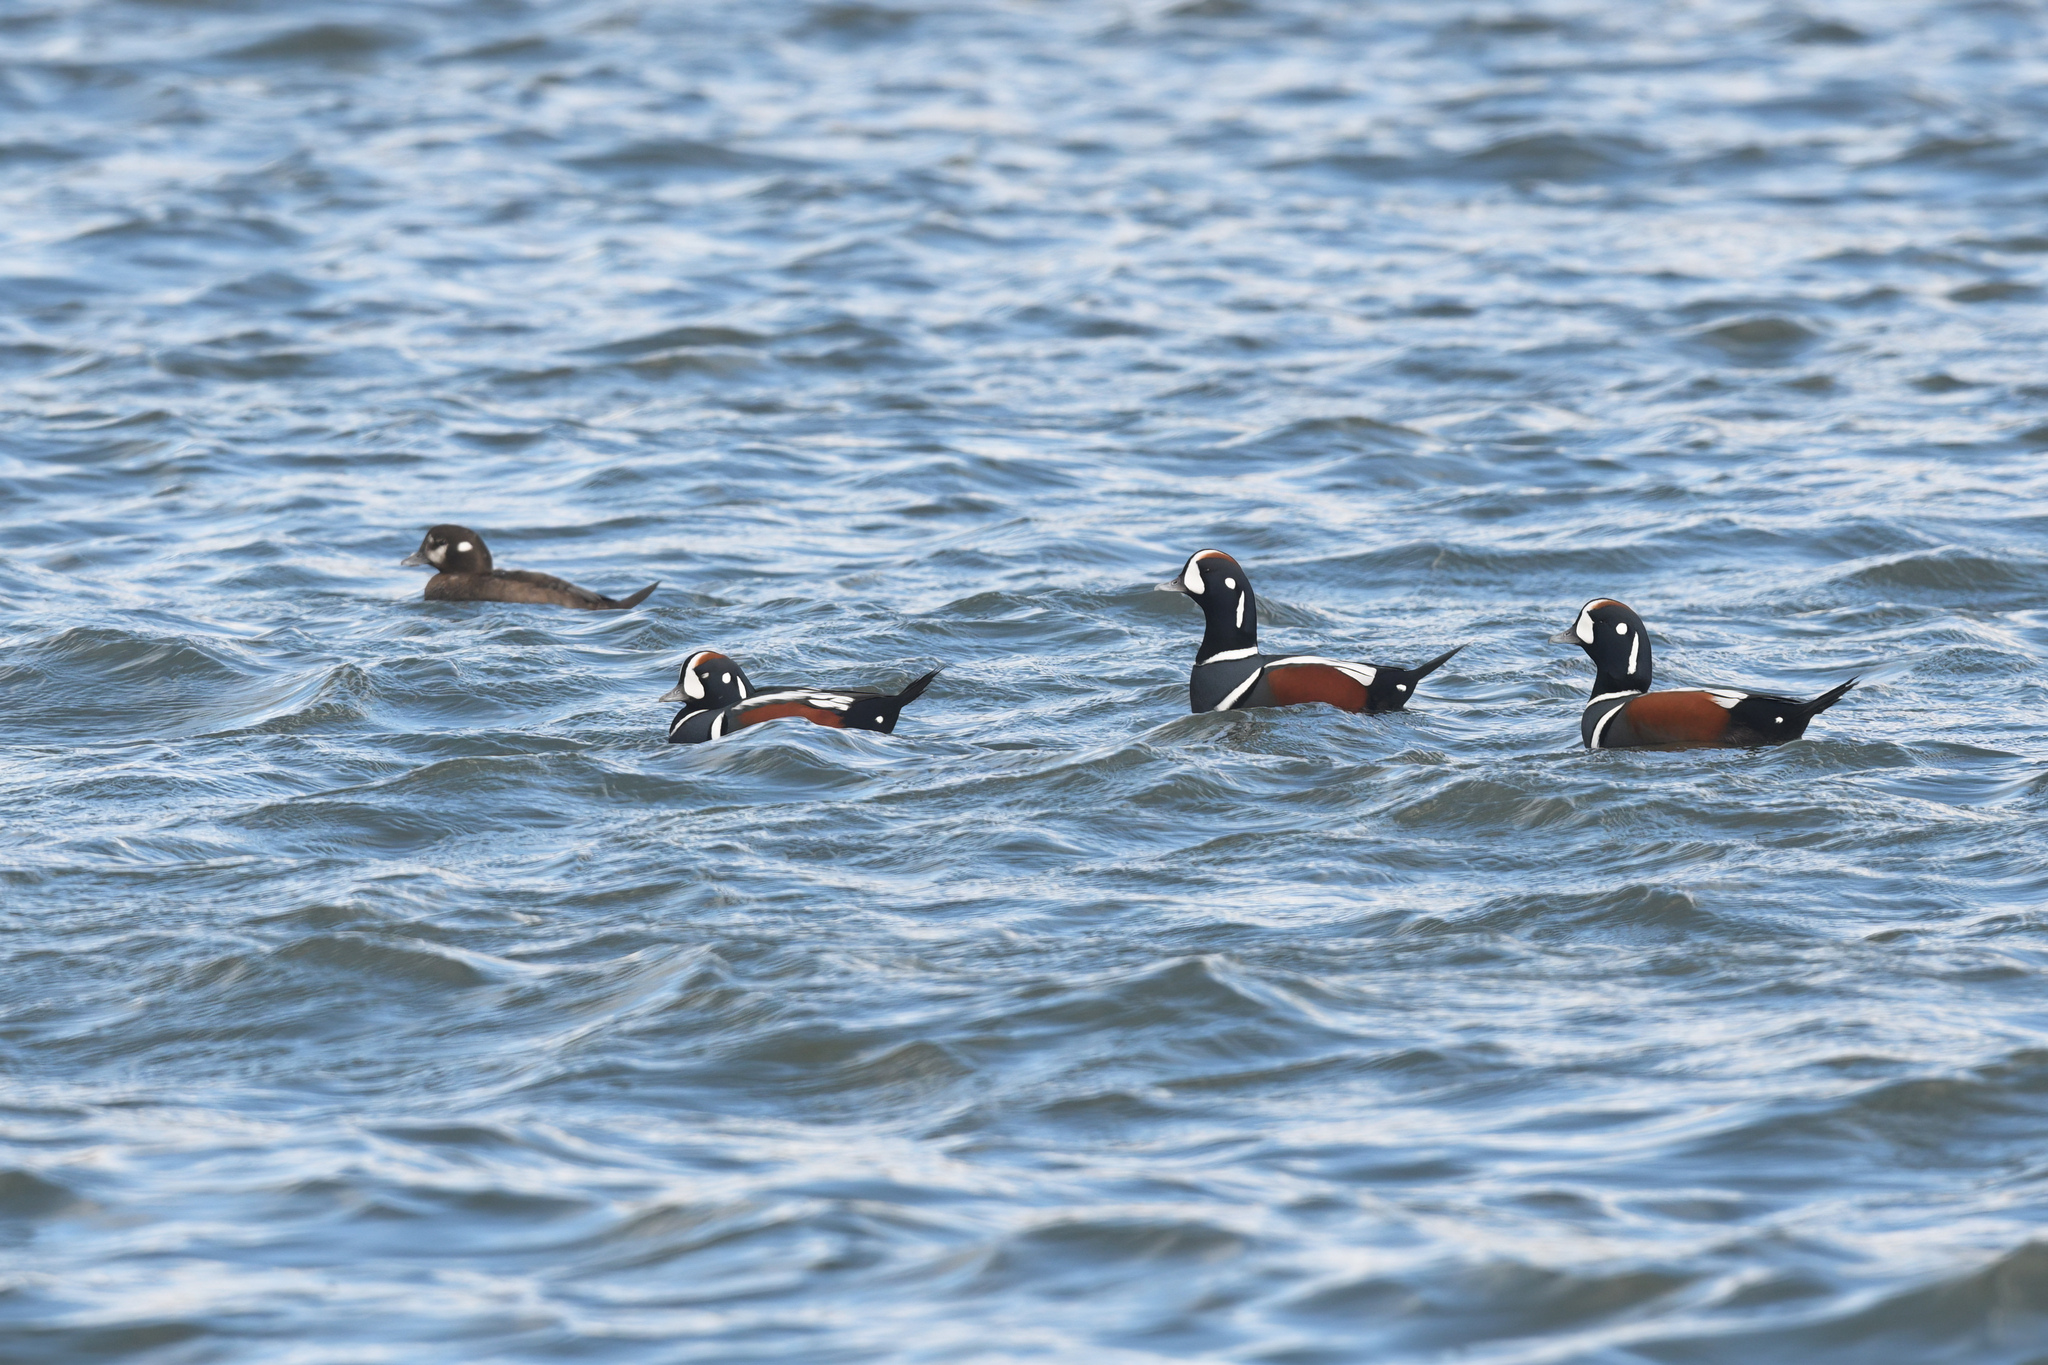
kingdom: Animalia
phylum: Chordata
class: Aves
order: Anseriformes
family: Anatidae
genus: Histrionicus
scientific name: Histrionicus histrionicus
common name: Harlequin duck
